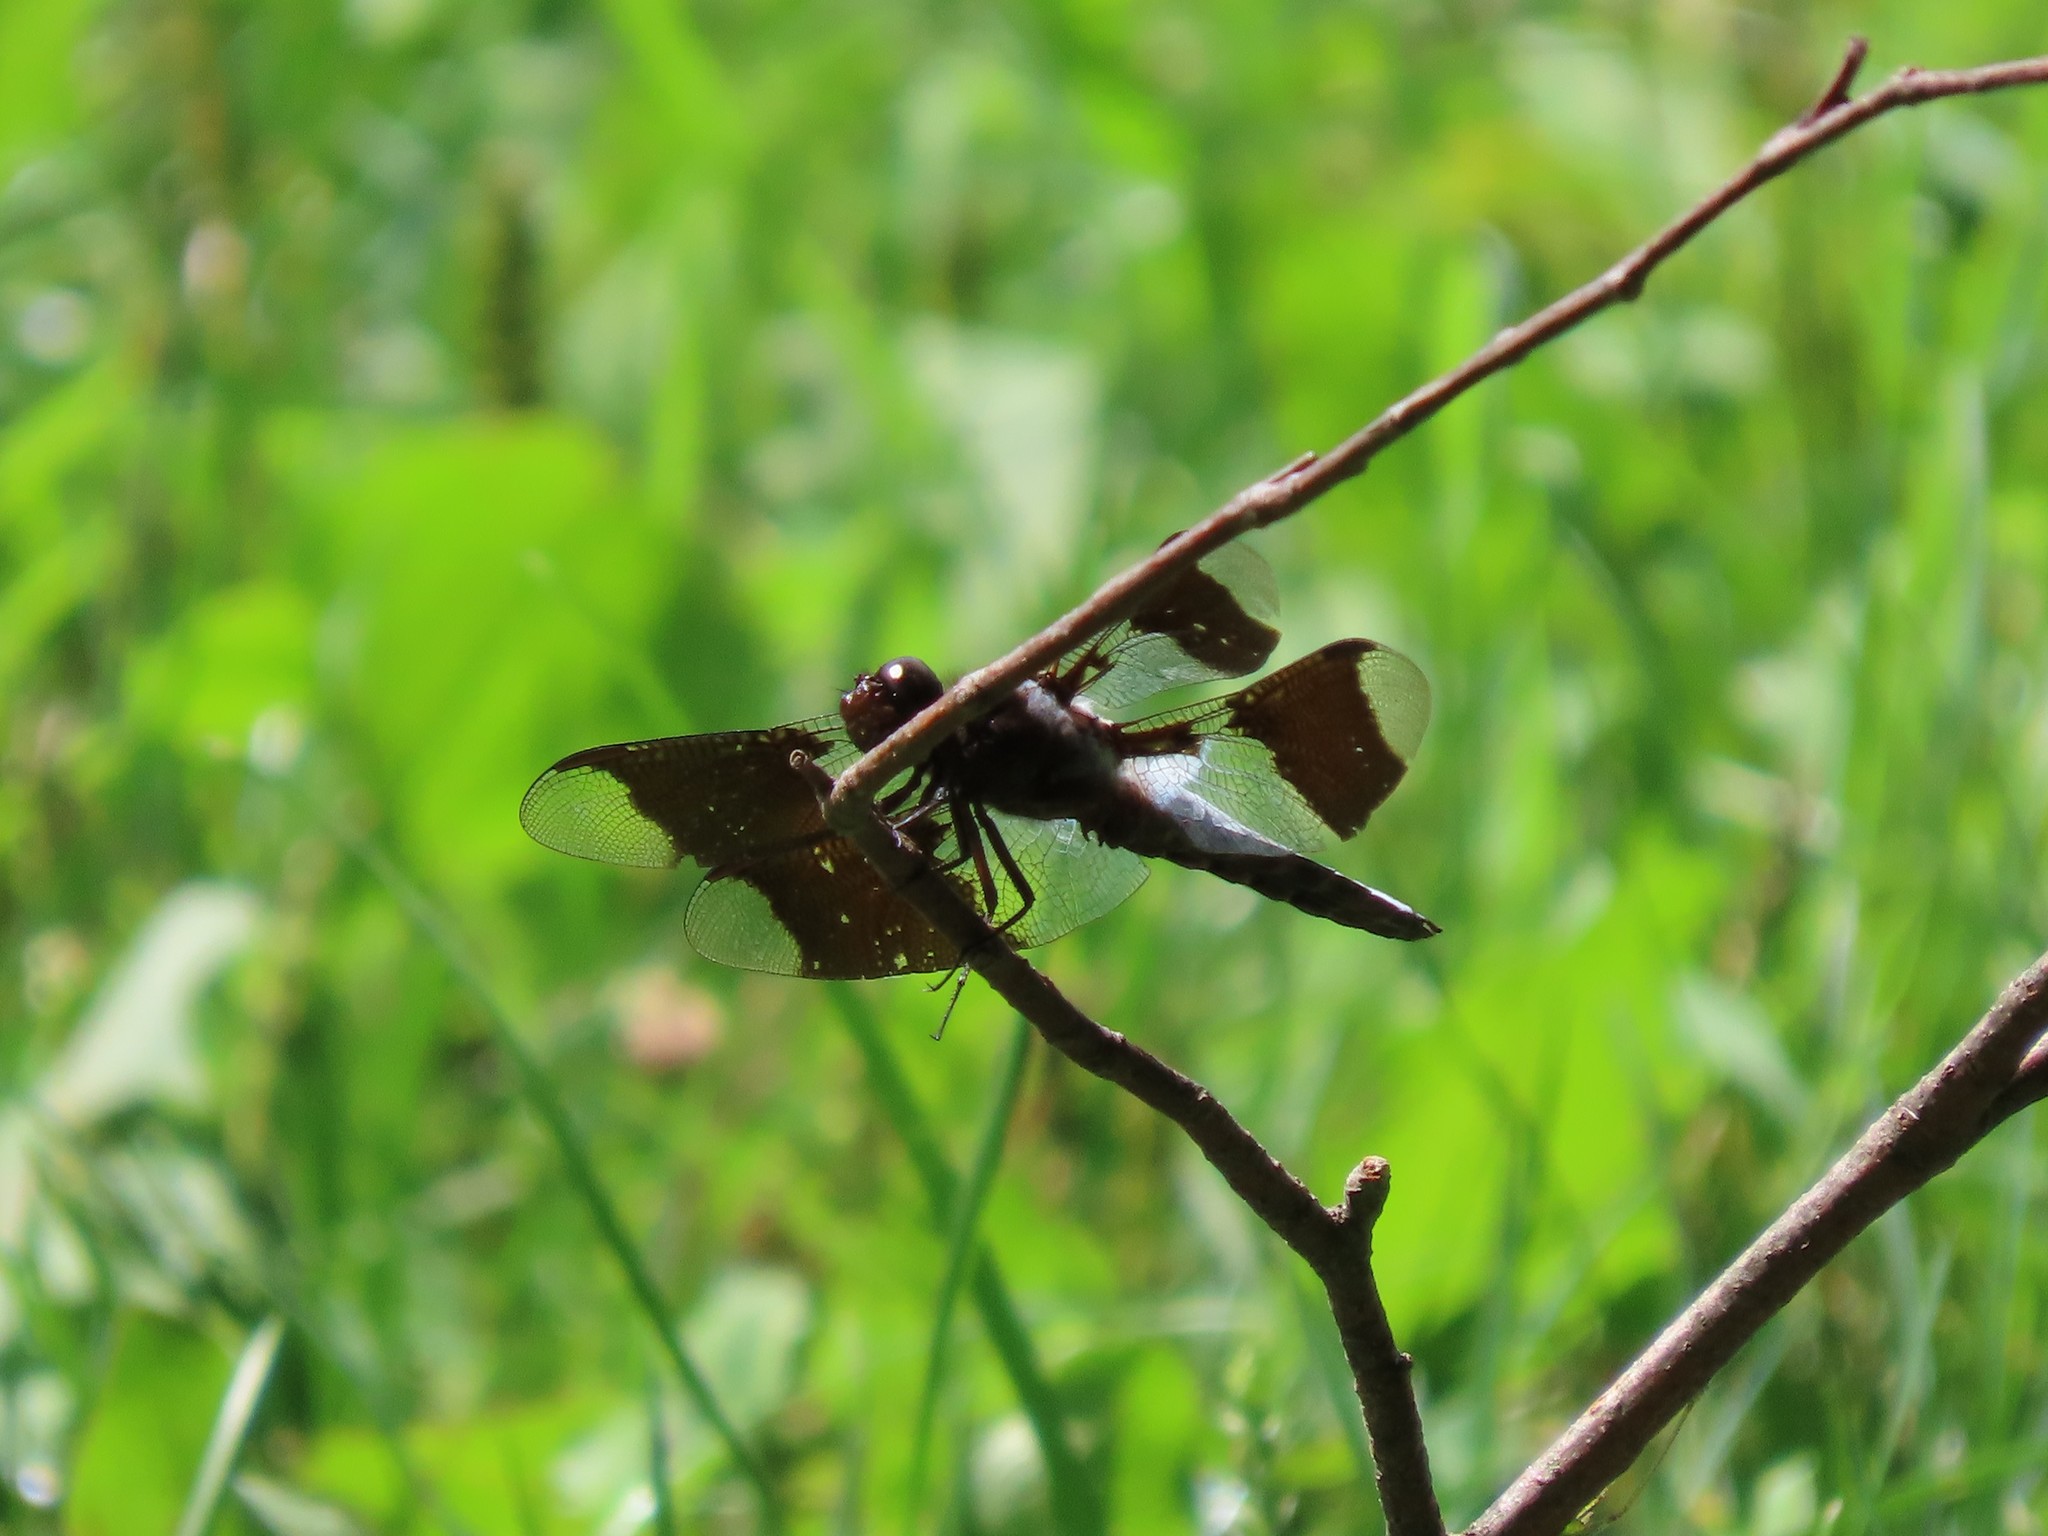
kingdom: Animalia
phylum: Arthropoda
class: Insecta
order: Odonata
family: Libellulidae
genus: Plathemis
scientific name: Plathemis lydia
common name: Common whitetail
